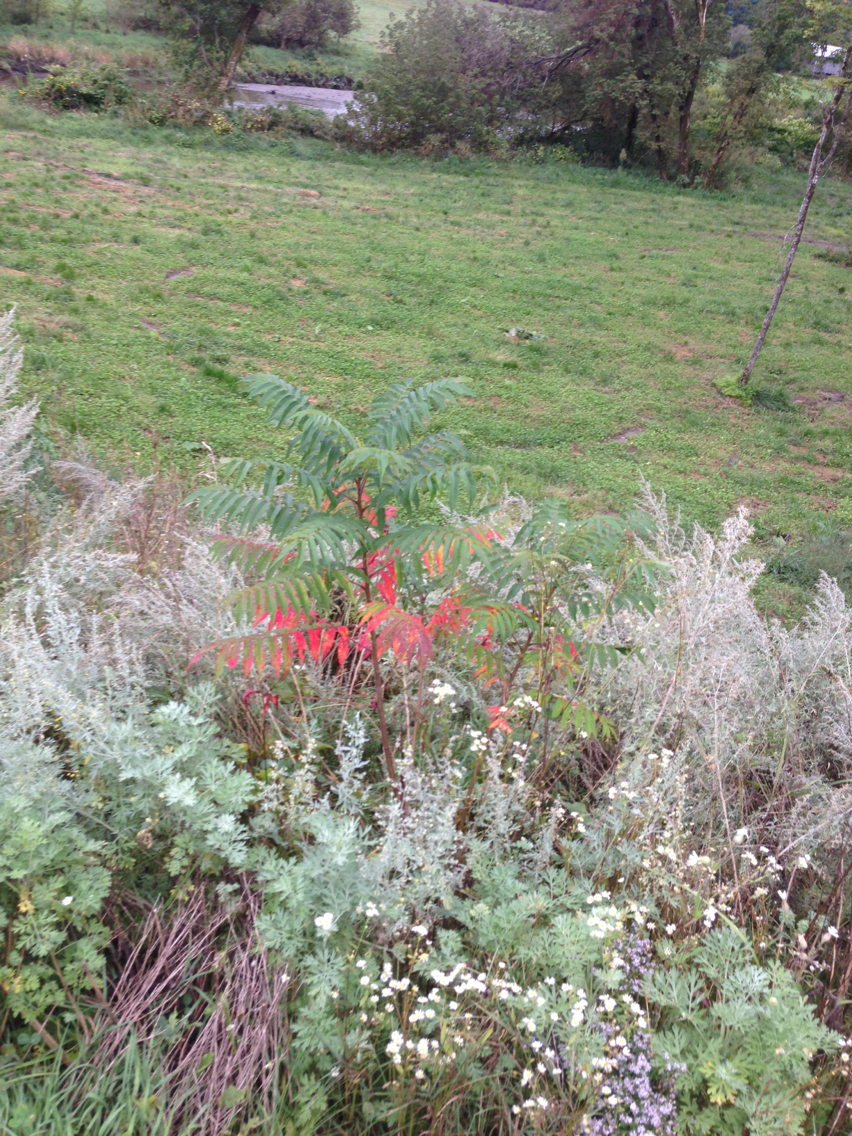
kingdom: Plantae
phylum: Tracheophyta
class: Magnoliopsida
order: Sapindales
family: Anacardiaceae
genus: Rhus
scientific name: Rhus typhina
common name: Staghorn sumac
